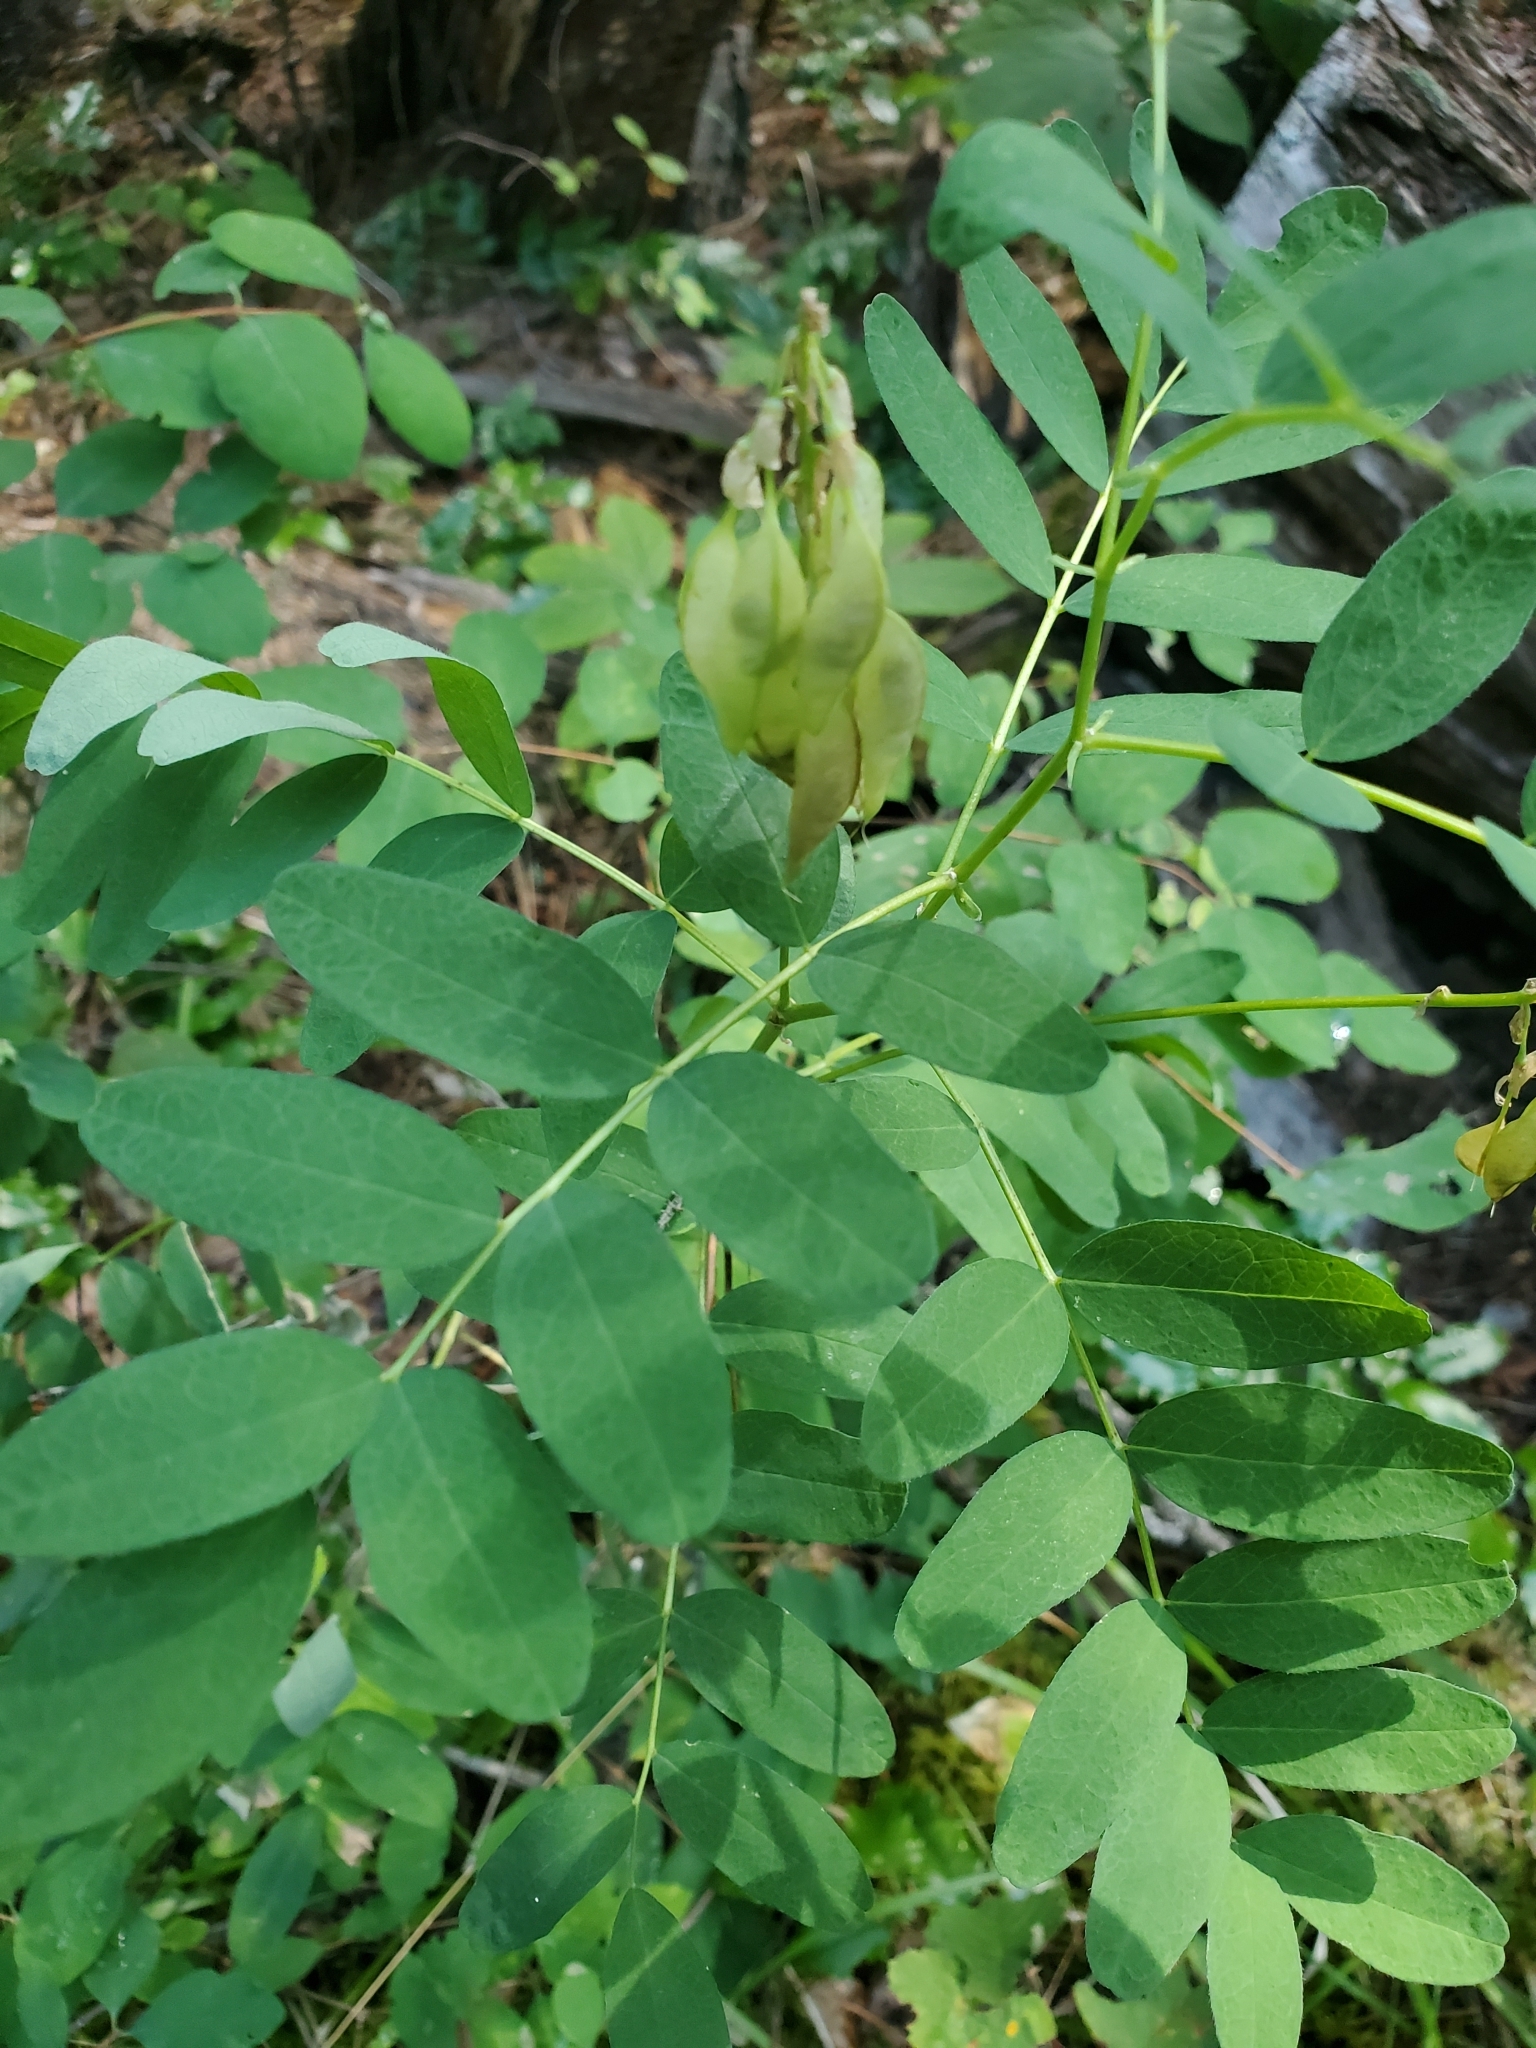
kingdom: Plantae
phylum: Tracheophyta
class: Magnoliopsida
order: Fabales
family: Fabaceae
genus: Astragalus
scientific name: Astragalus americanus
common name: American milk-vetch
